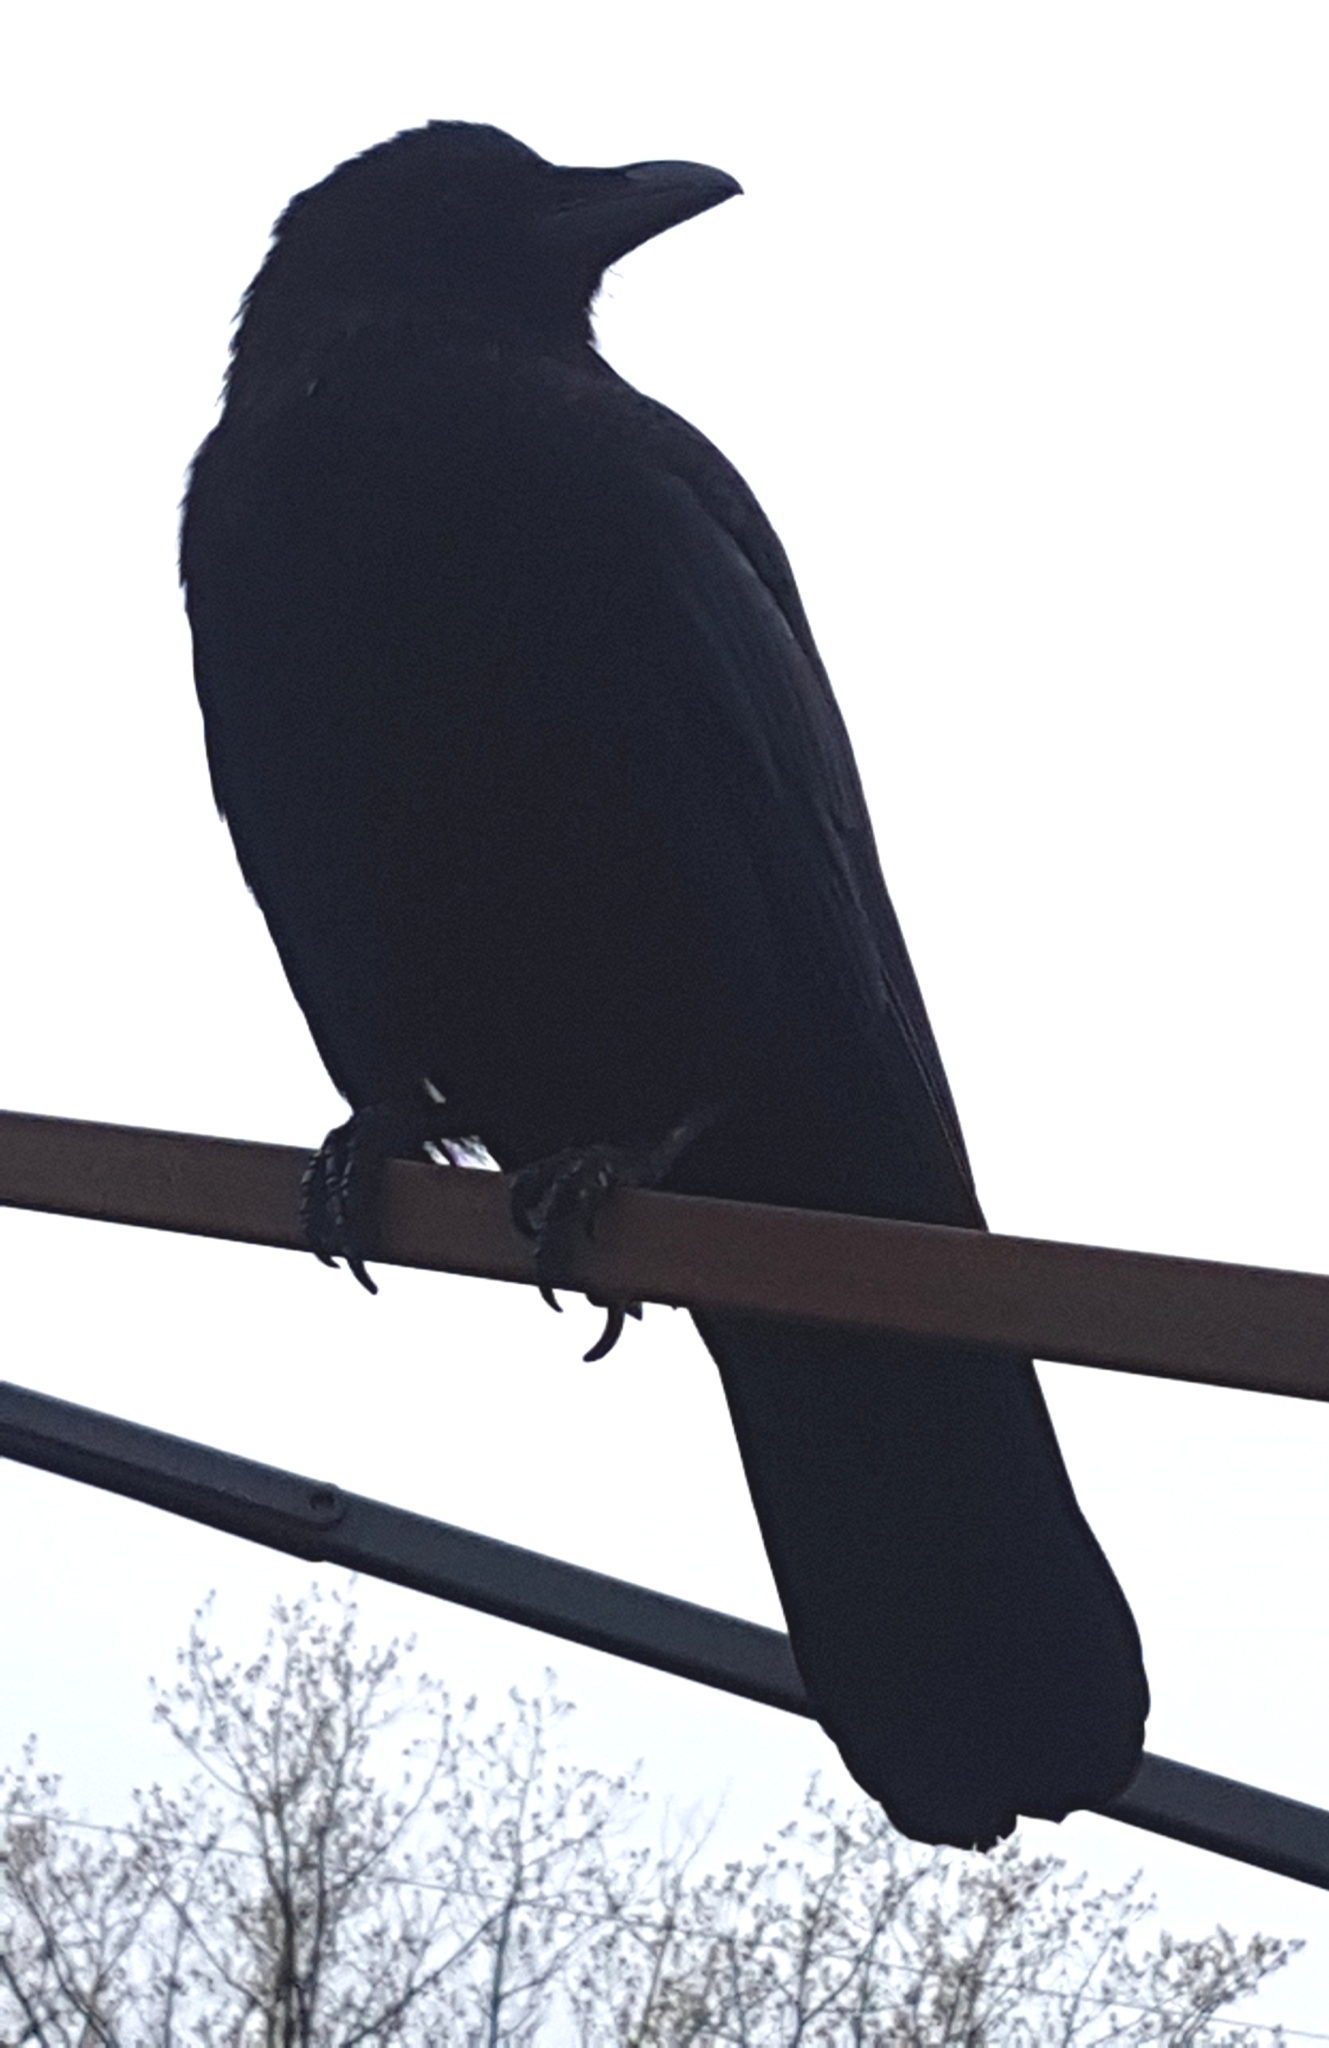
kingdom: Animalia
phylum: Chordata
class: Aves
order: Passeriformes
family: Corvidae
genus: Corvus
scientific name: Corvus brachyrhynchos
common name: American crow
